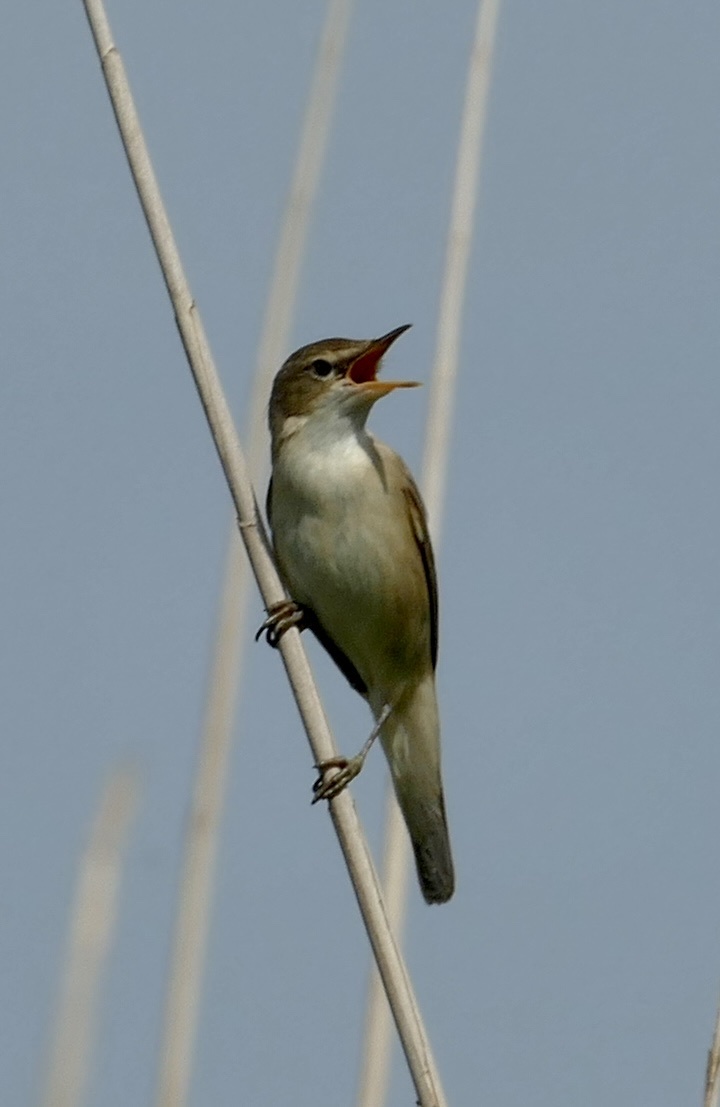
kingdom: Animalia
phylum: Chordata
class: Aves
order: Passeriformes
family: Acrocephalidae
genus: Acrocephalus
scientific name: Acrocephalus scirpaceus
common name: Eurasian reed warbler
